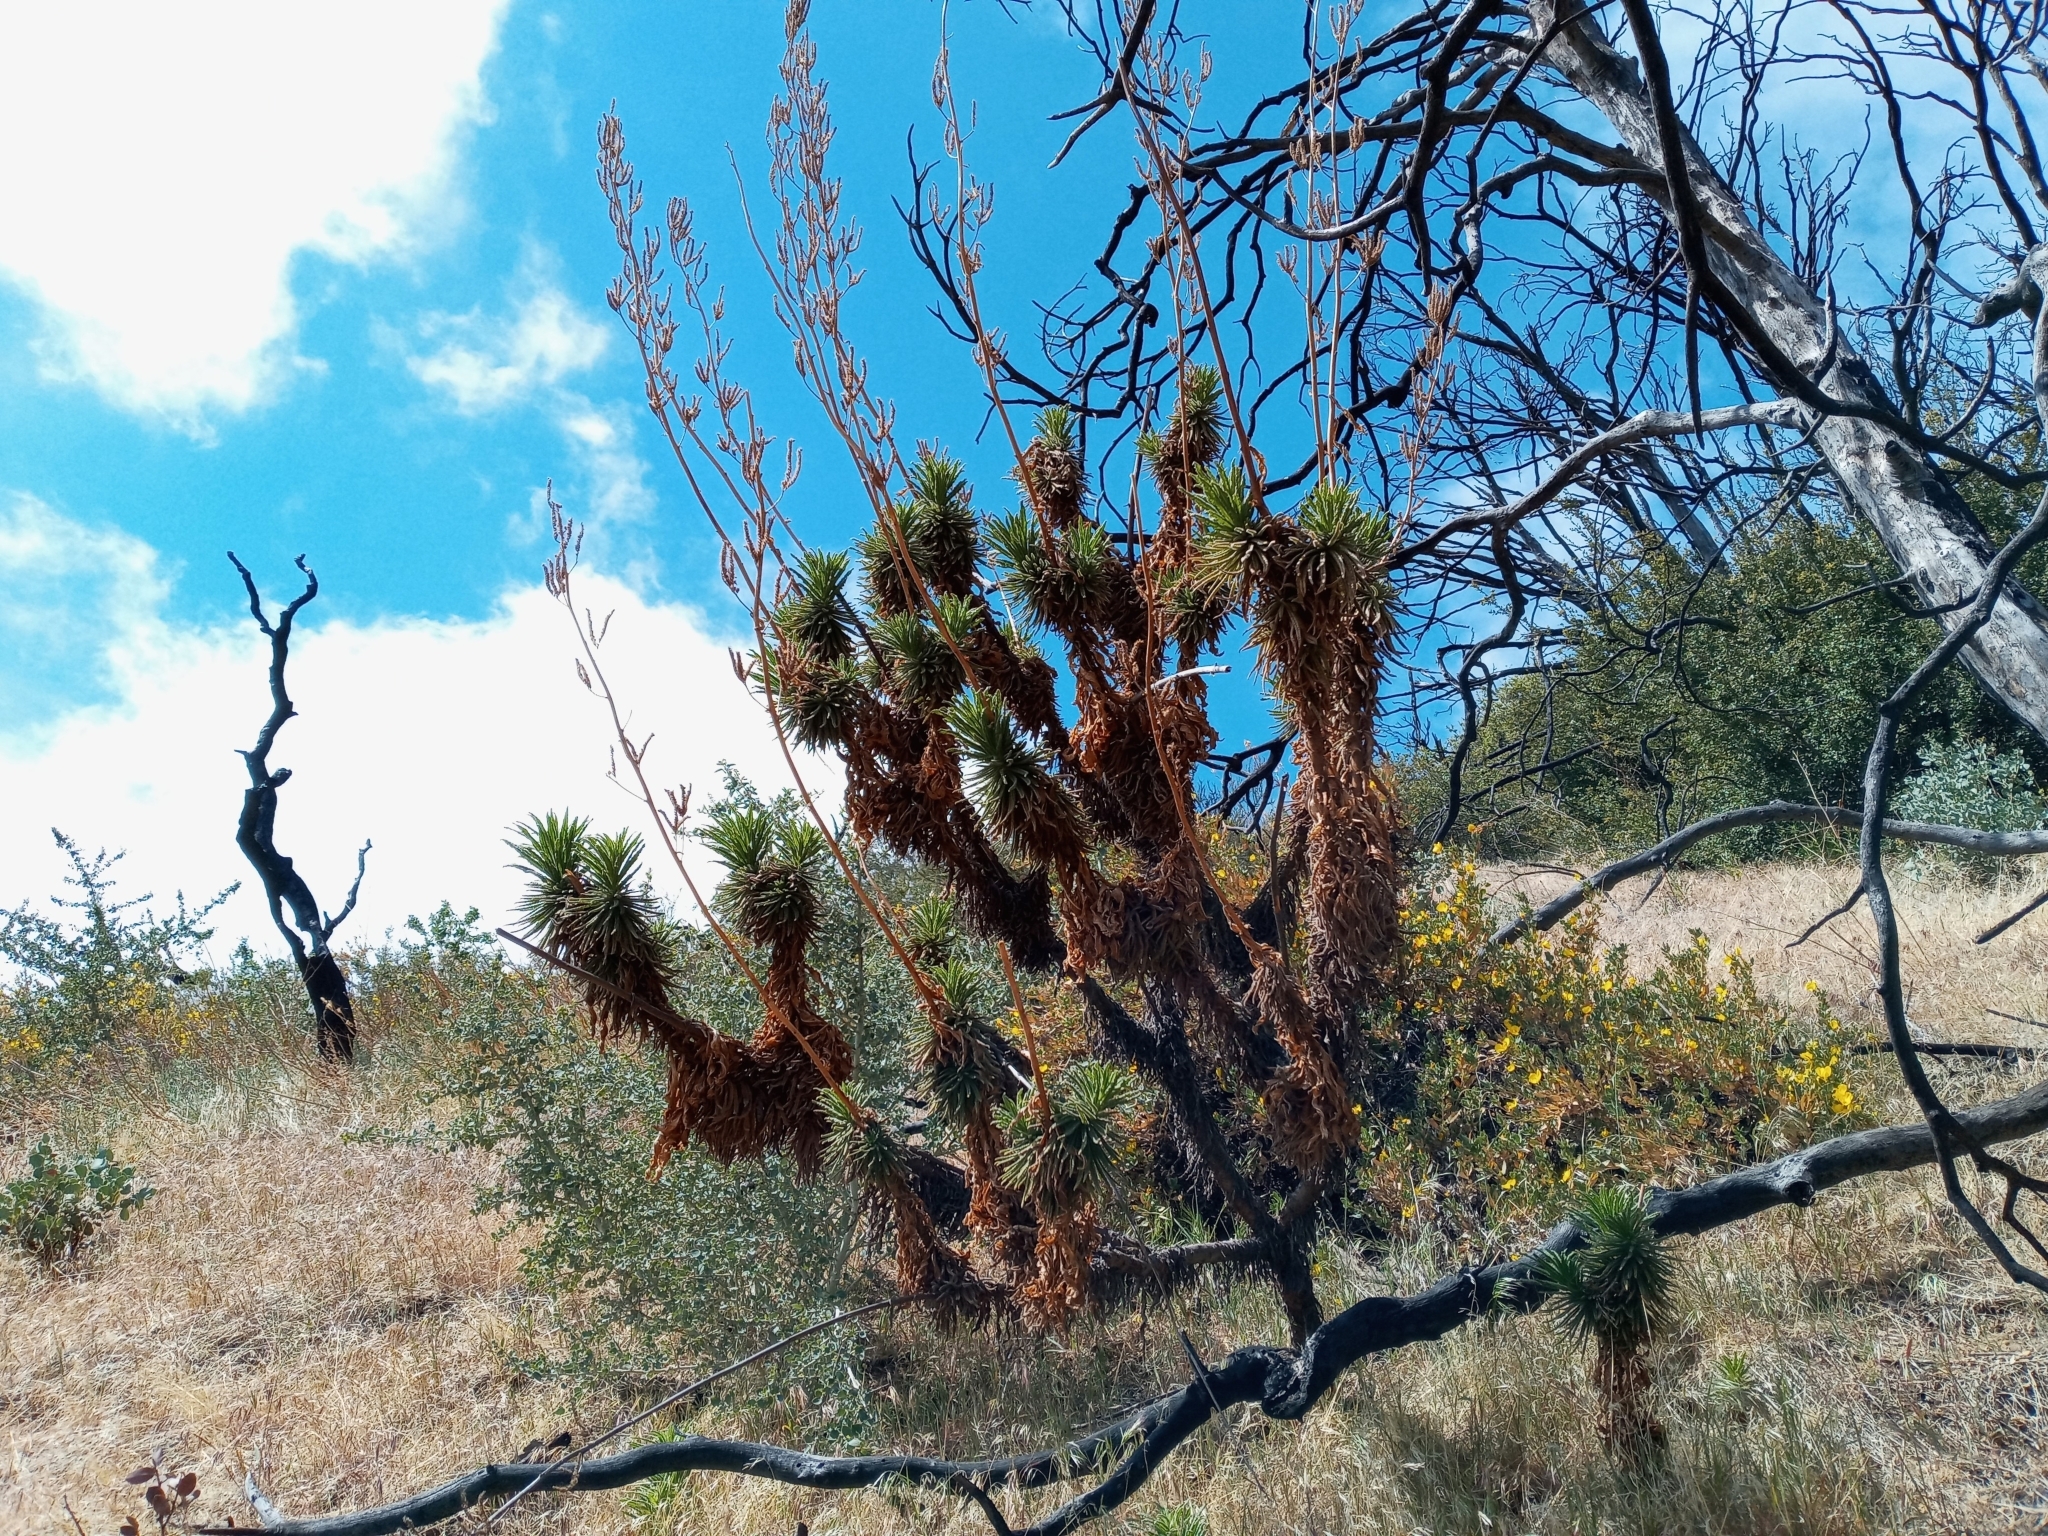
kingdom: Plantae
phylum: Tracheophyta
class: Magnoliopsida
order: Boraginales
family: Namaceae
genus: Turricula
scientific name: Turricula parryi
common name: Poodle-dog-bush
